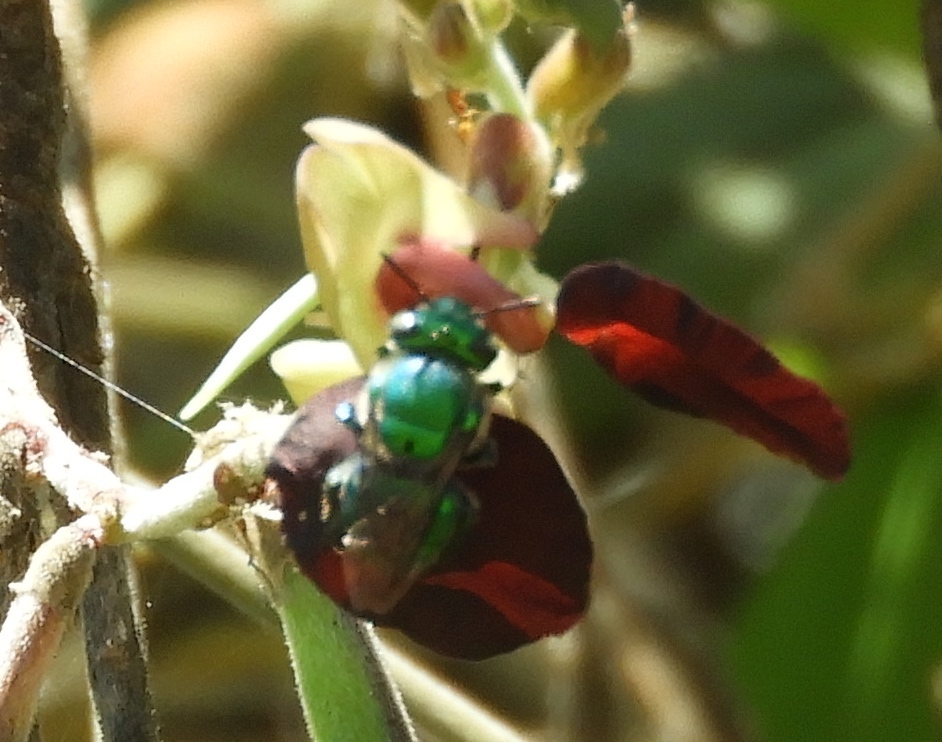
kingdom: Animalia
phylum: Arthropoda
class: Insecta
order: Hymenoptera
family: Apidae
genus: Euglossa
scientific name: Euglossa
